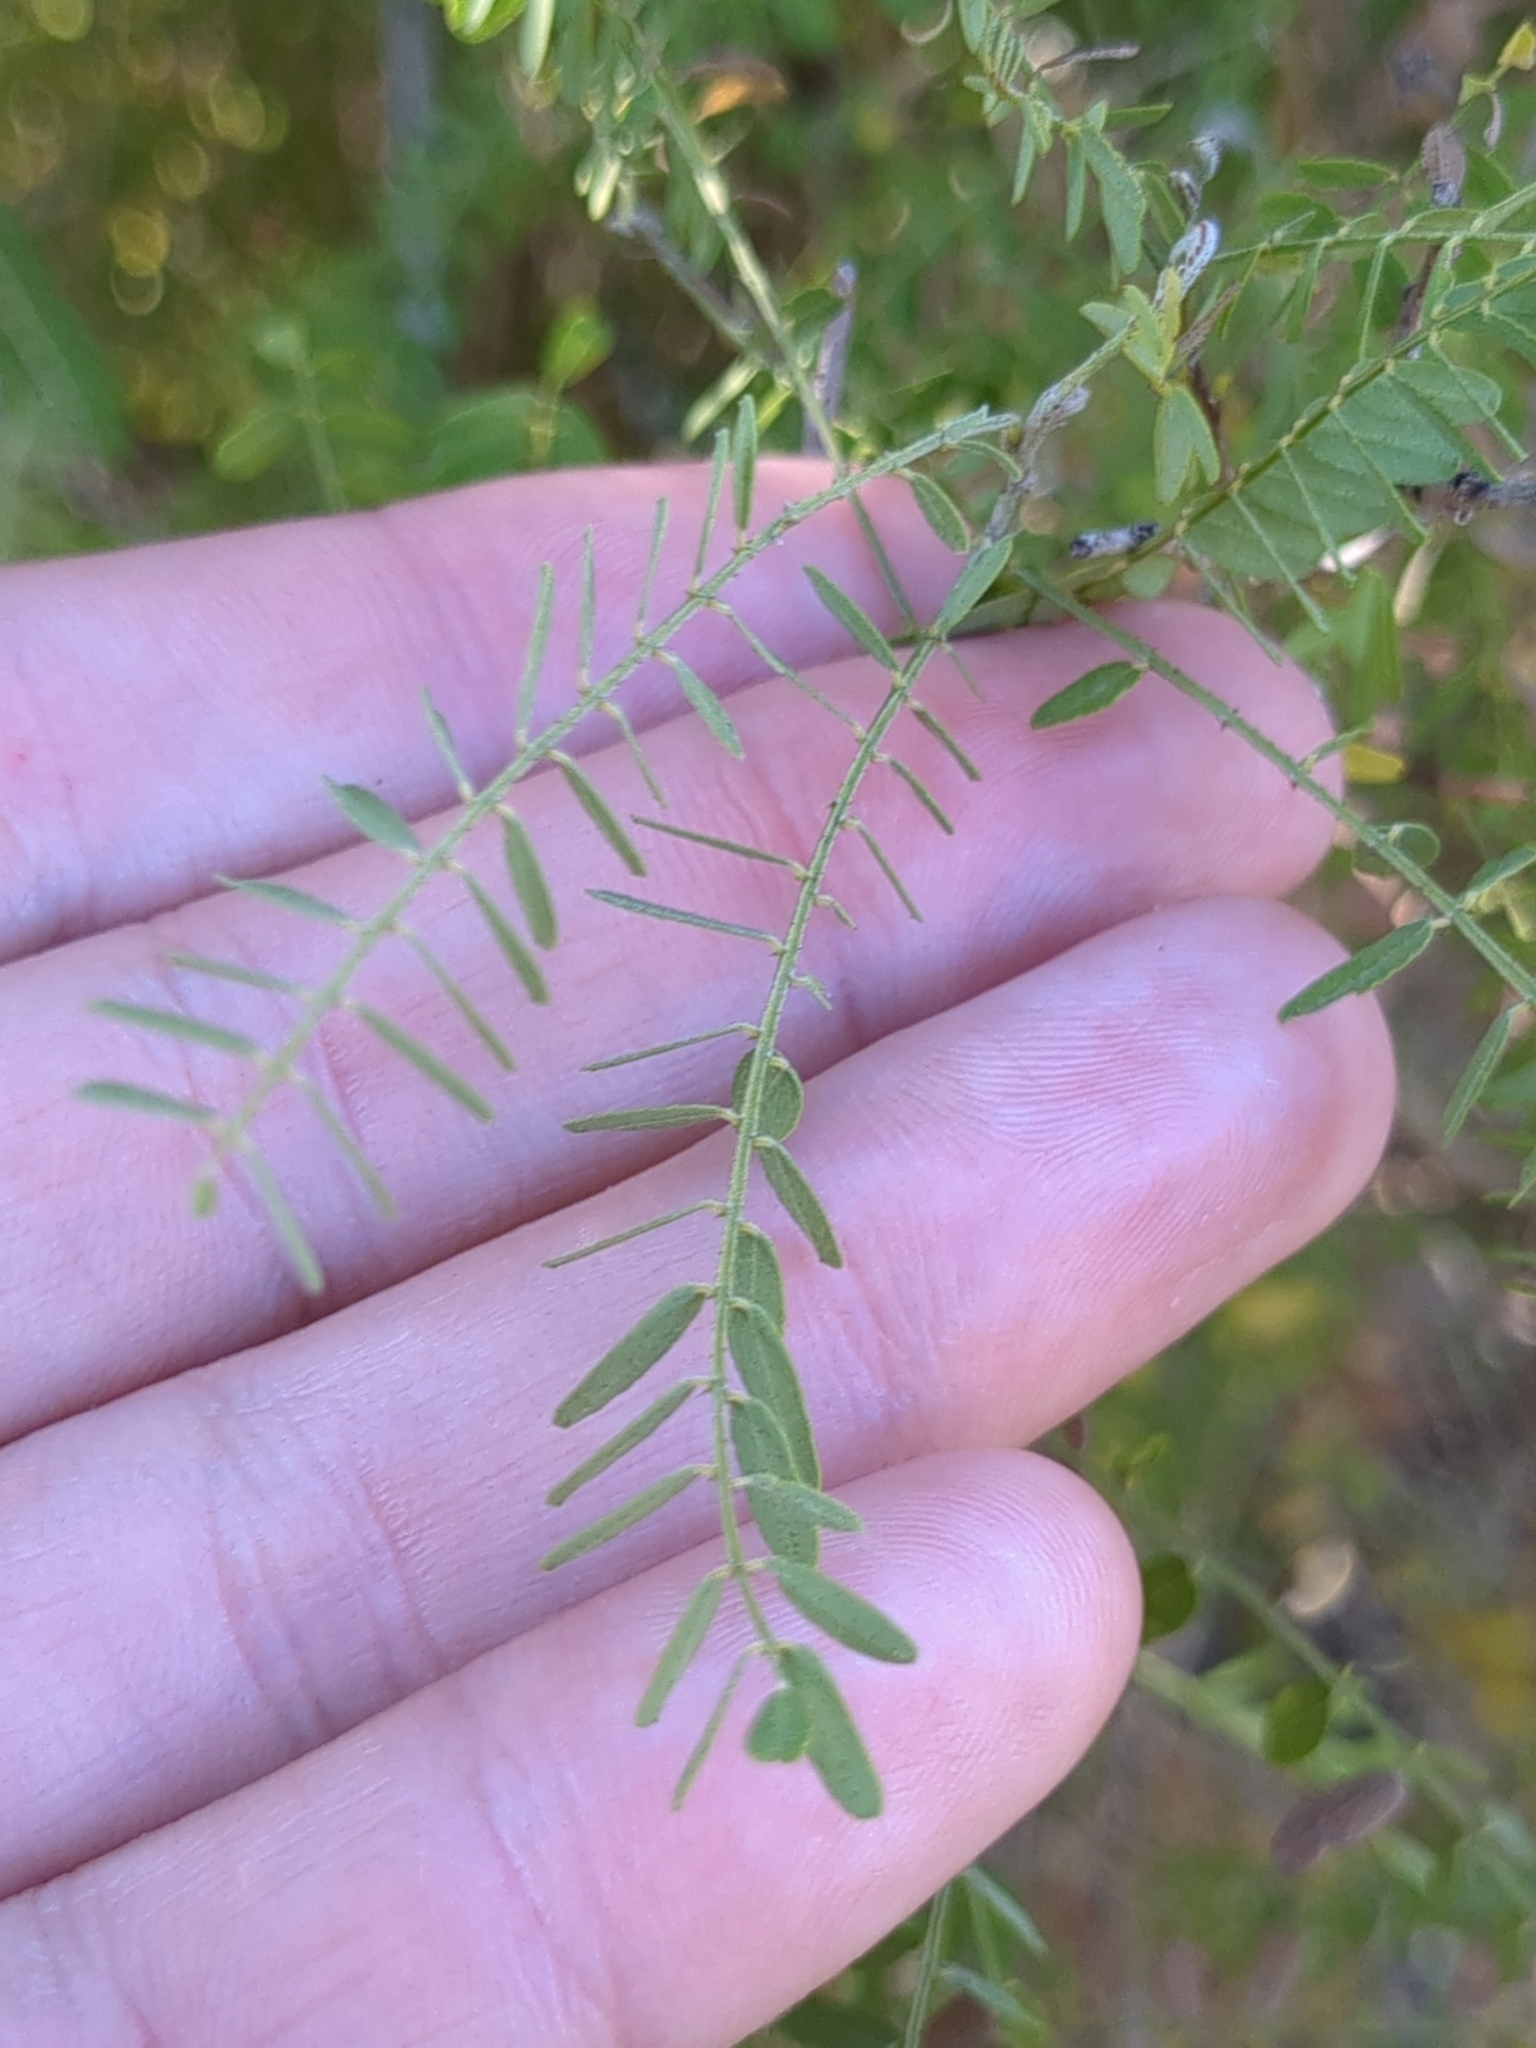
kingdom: Plantae
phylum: Tracheophyta
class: Magnoliopsida
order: Fabales
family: Fabaceae
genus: Eysenhardtia
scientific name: Eysenhardtia texana
